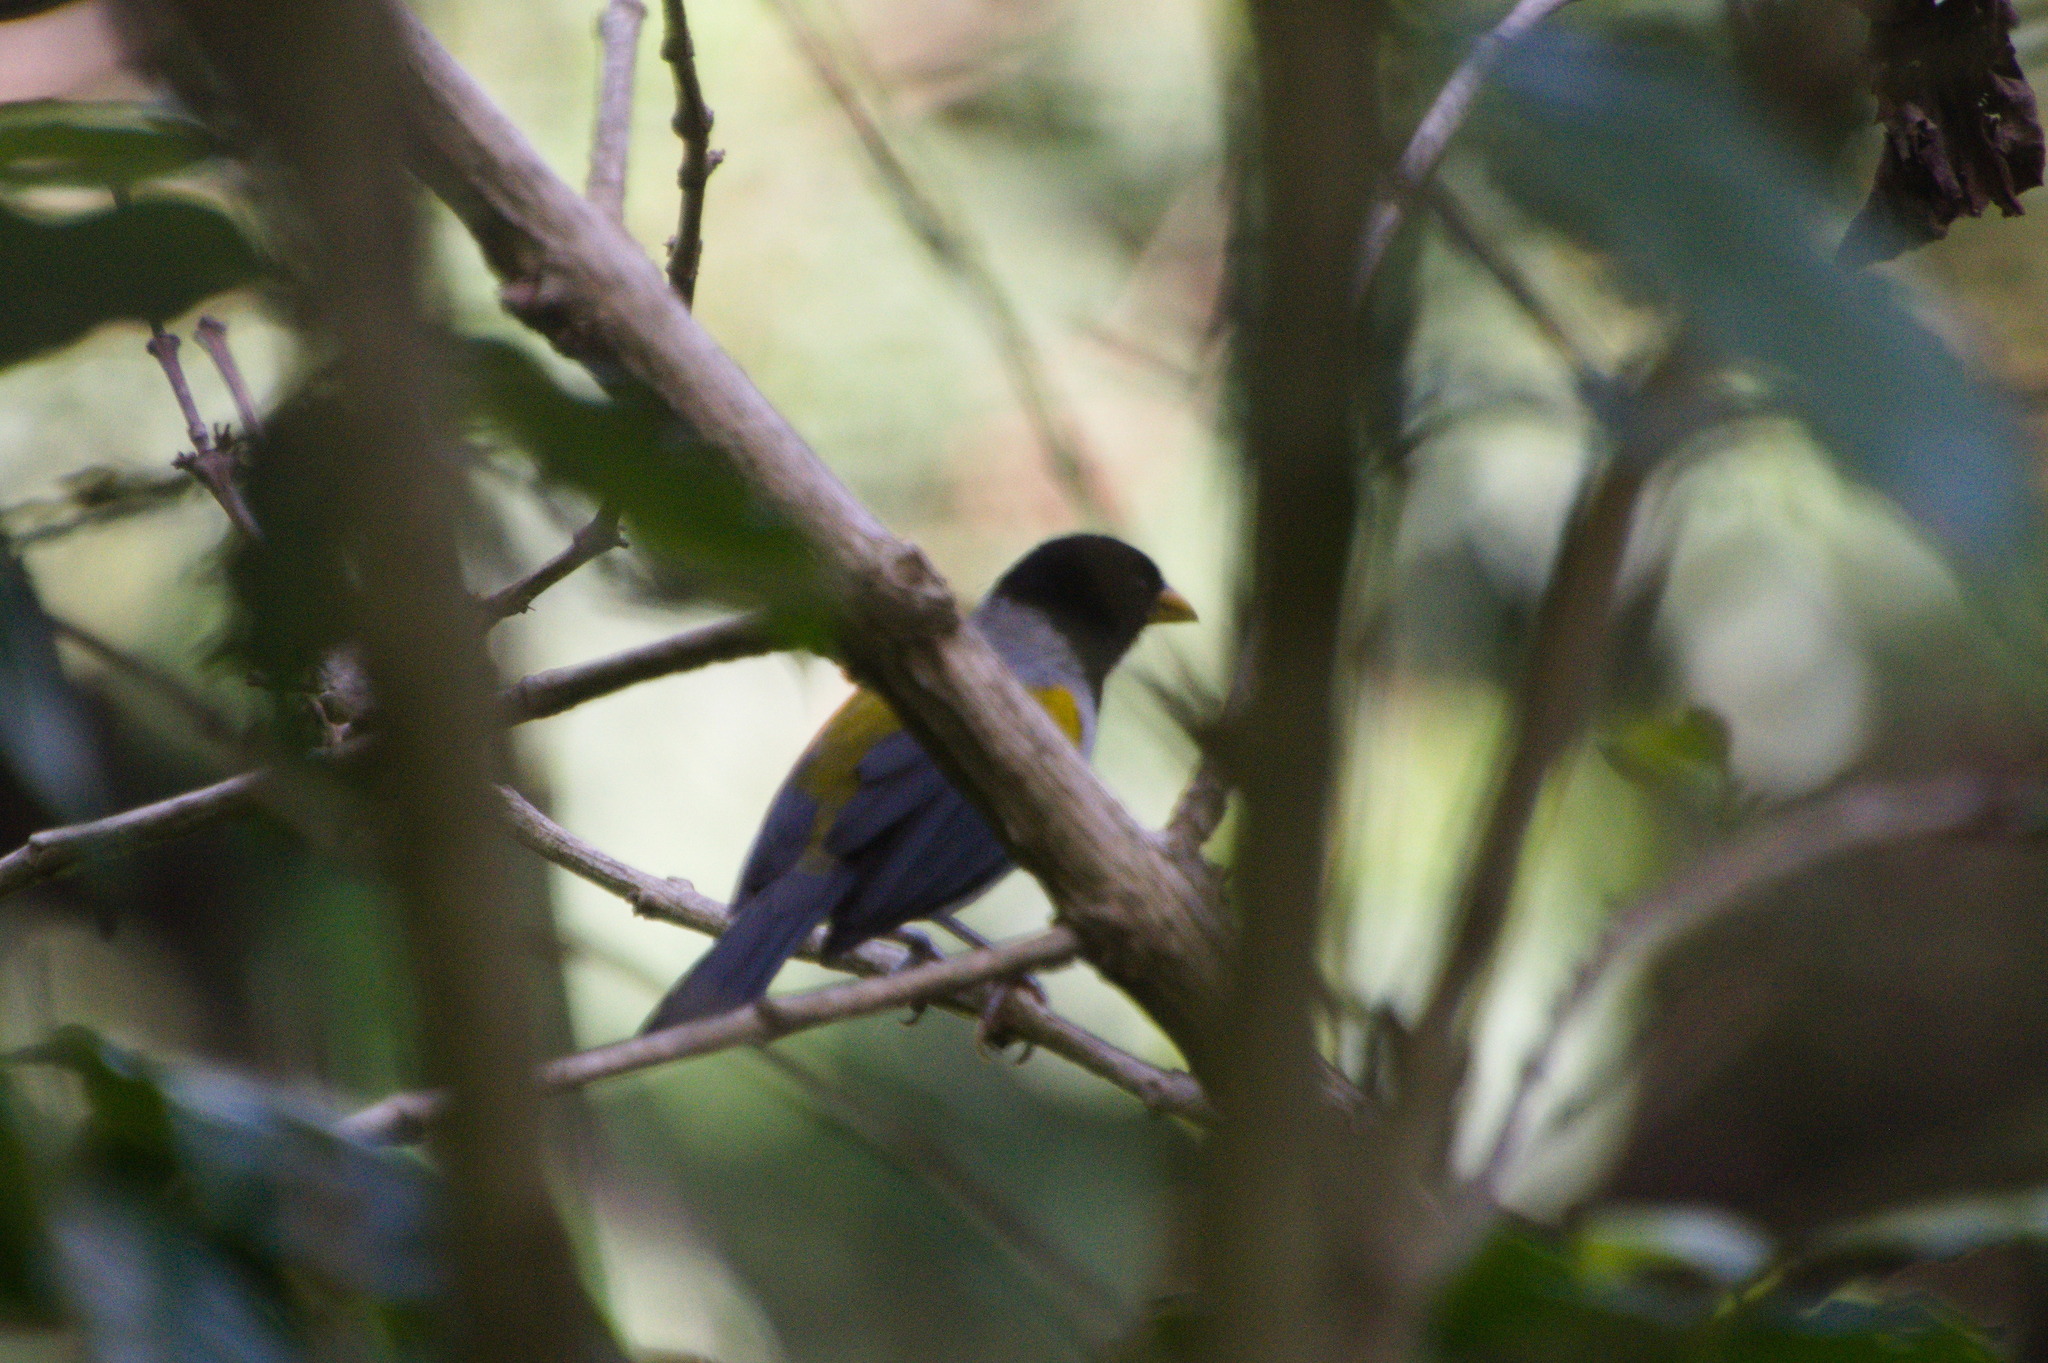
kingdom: Animalia
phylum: Chordata
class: Aves
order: Passeriformes
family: Passerellidae
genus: Arremon
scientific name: Arremon schlegeli
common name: Golden-winged sparrow
